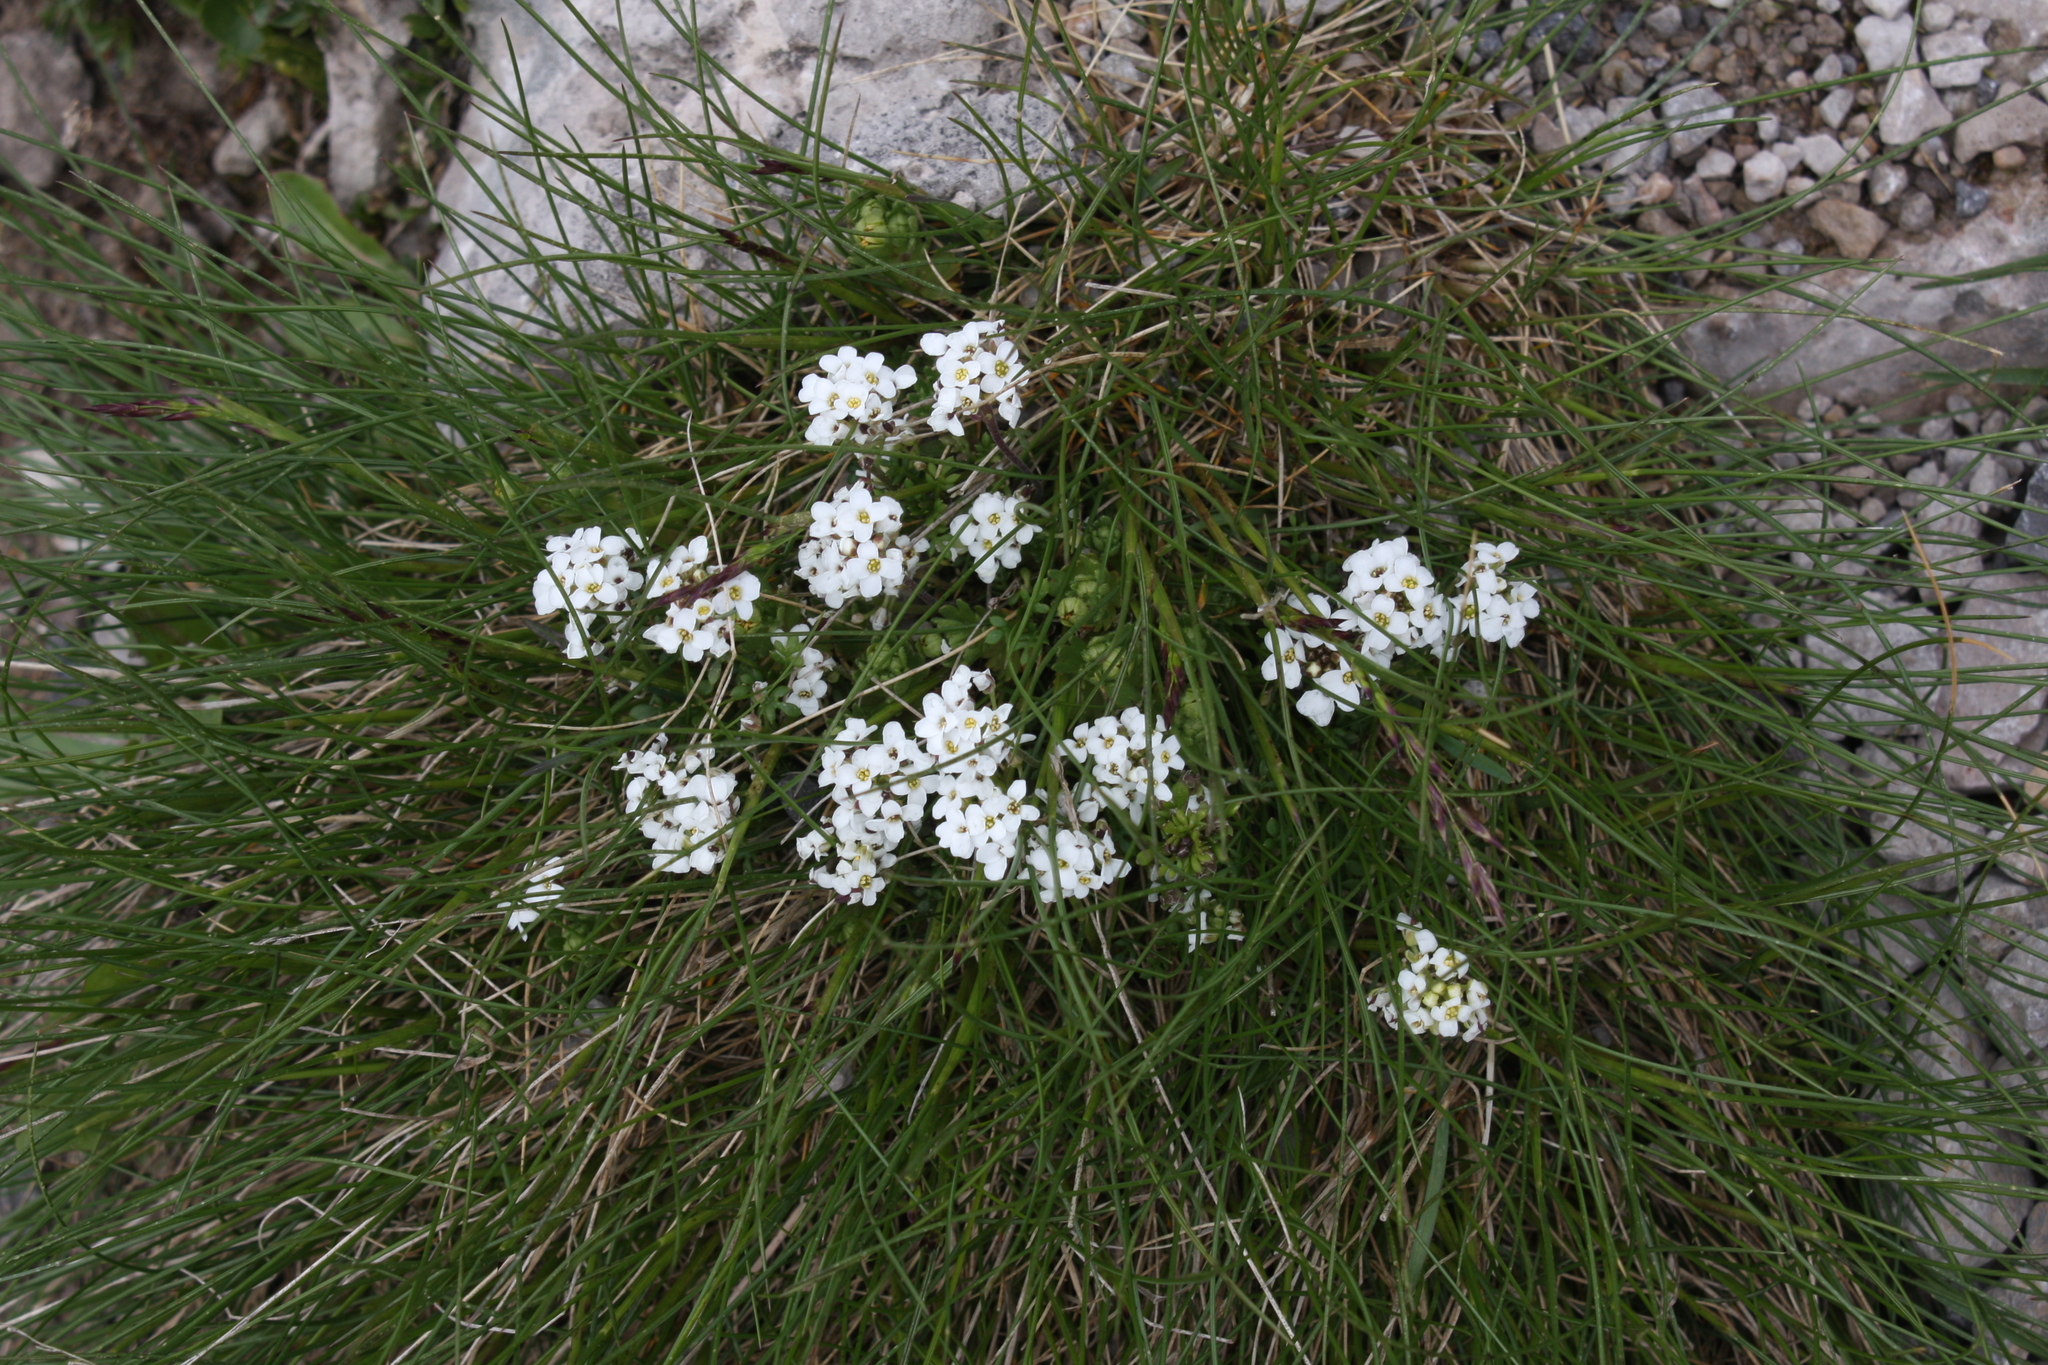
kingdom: Plantae
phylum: Tracheophyta
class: Magnoliopsida
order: Brassicales
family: Brassicaceae
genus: Hornungia
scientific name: Hornungia alpina
